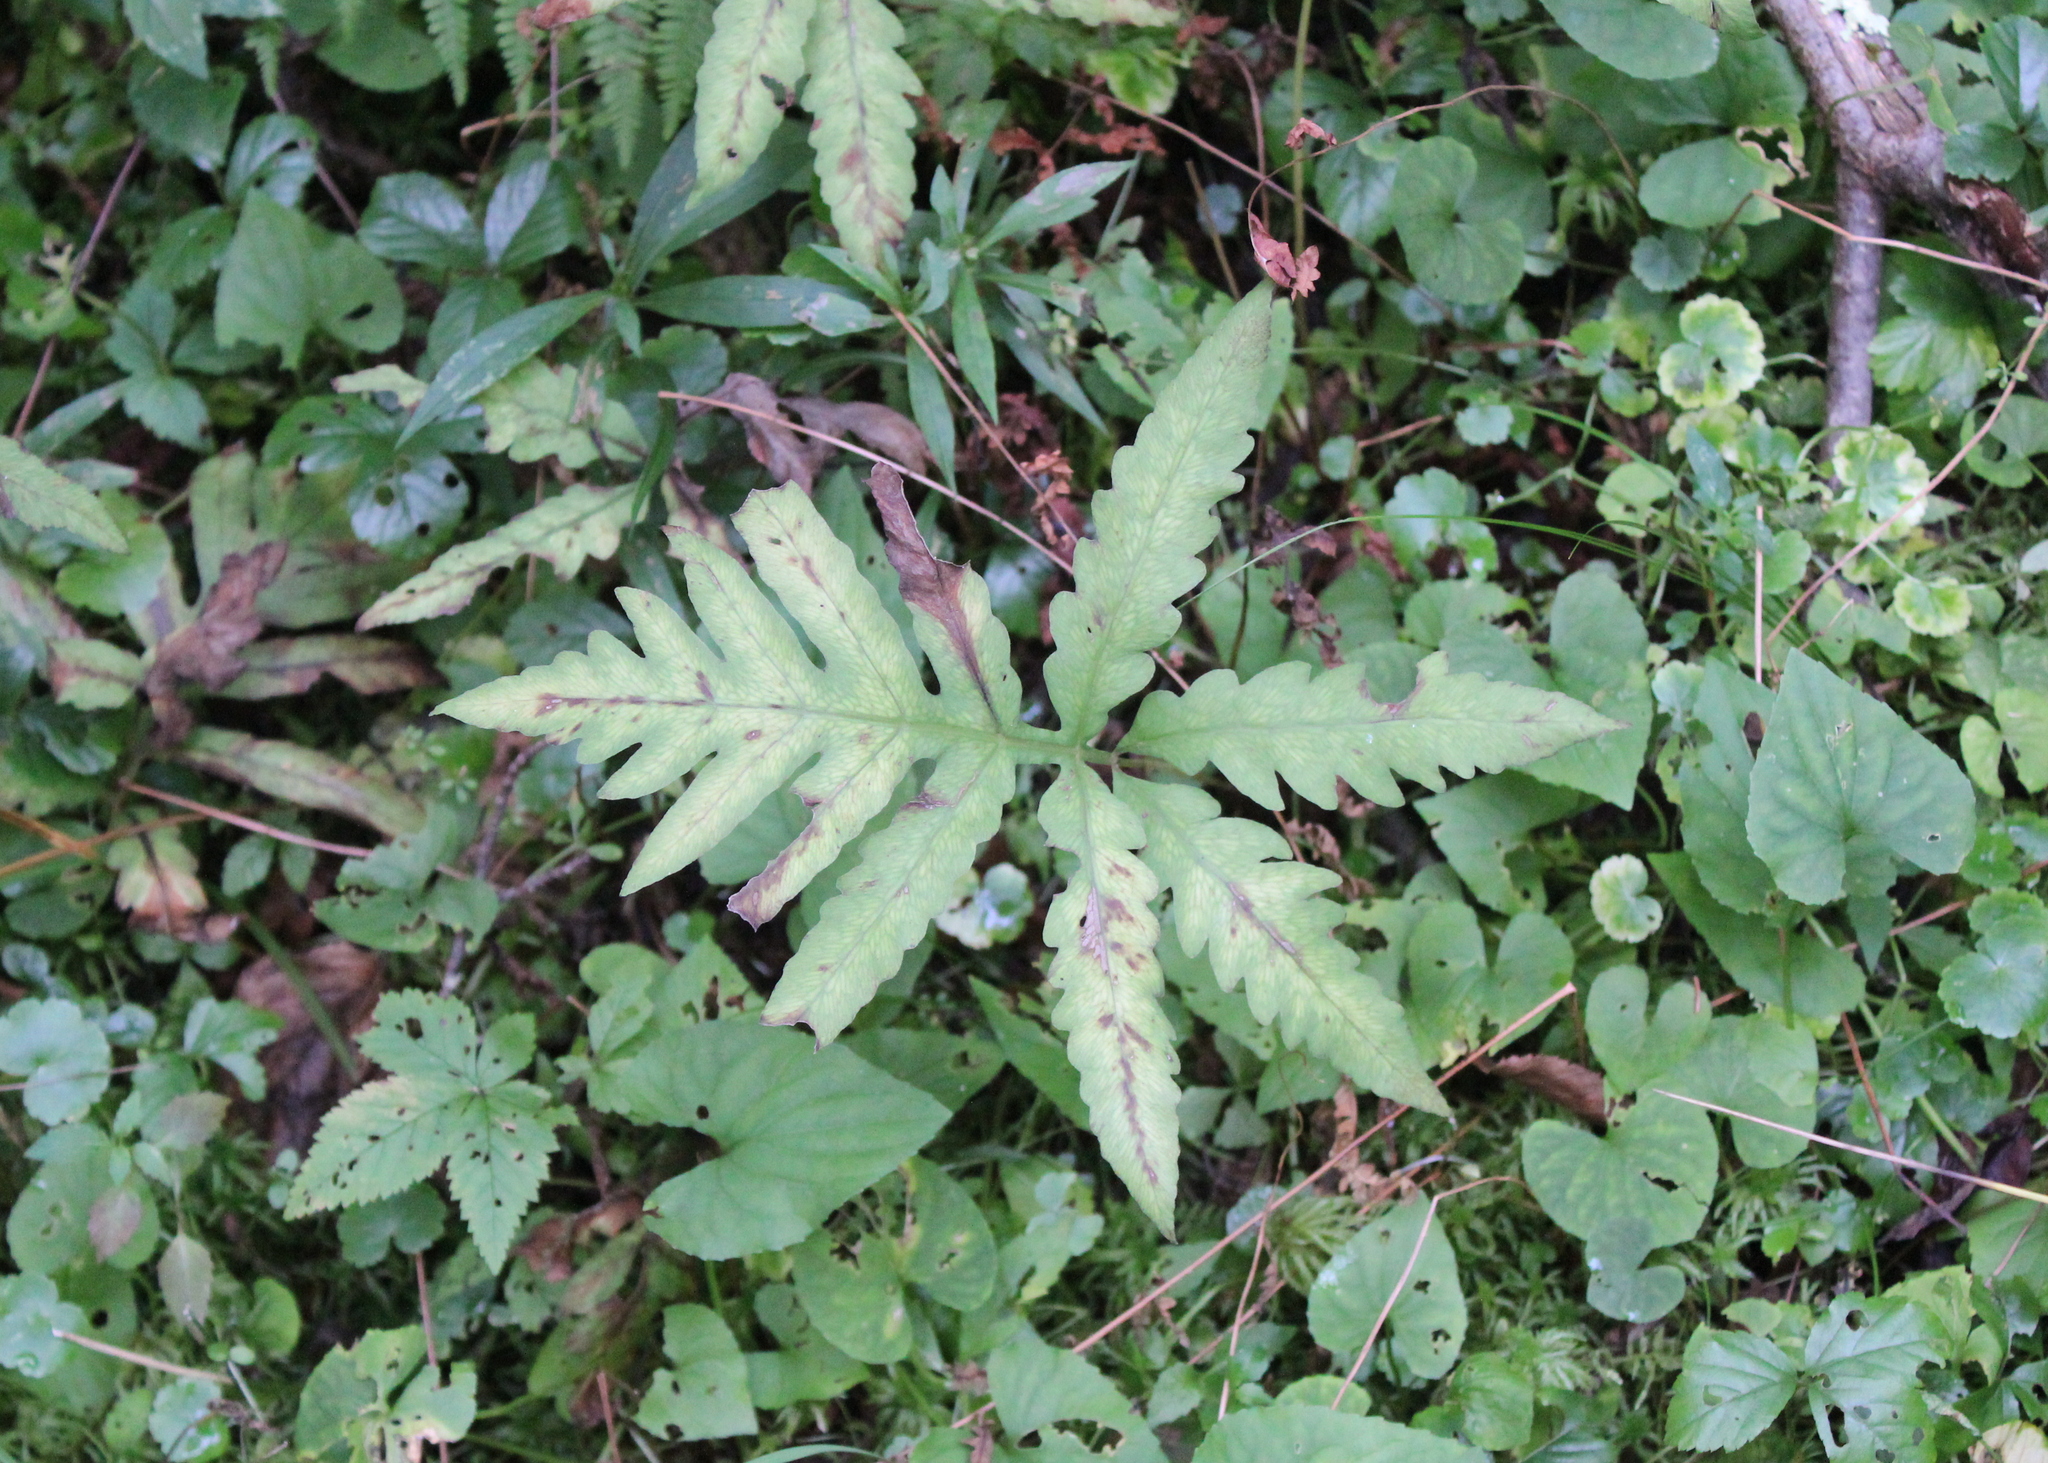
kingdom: Plantae
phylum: Tracheophyta
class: Polypodiopsida
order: Polypodiales
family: Onocleaceae
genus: Onoclea
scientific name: Onoclea sensibilis
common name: Sensitive fern
